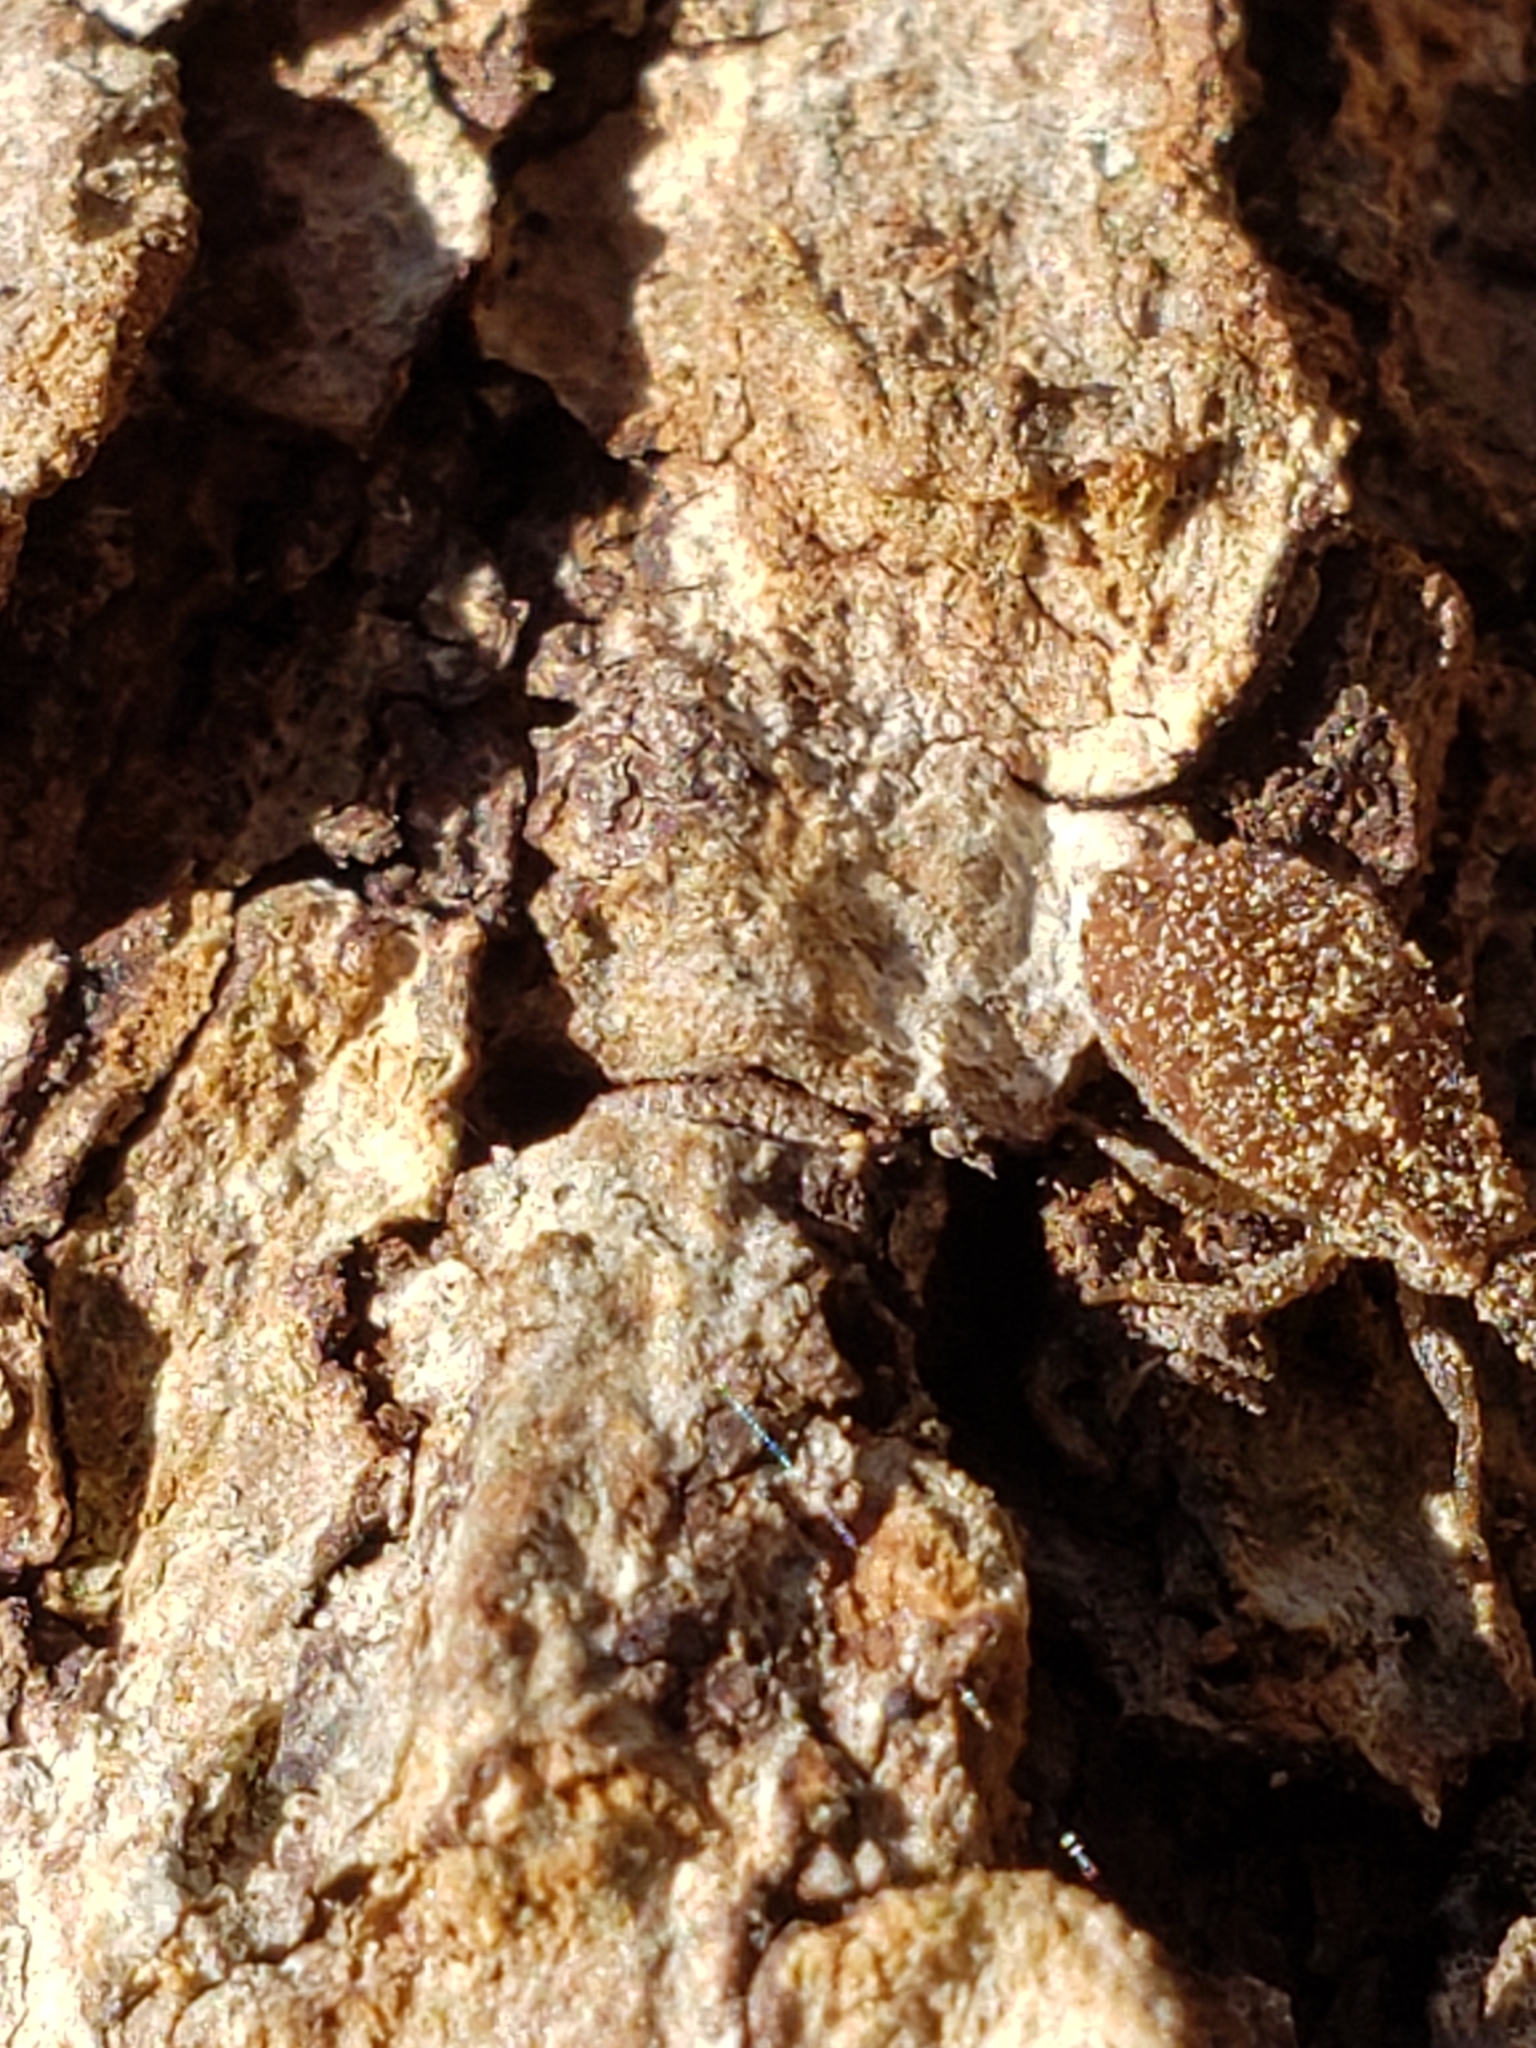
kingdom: Animalia
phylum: Arthropoda
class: Insecta
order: Hemiptera
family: Reduviidae
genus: Triatoma
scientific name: Triatoma sanguisuga
